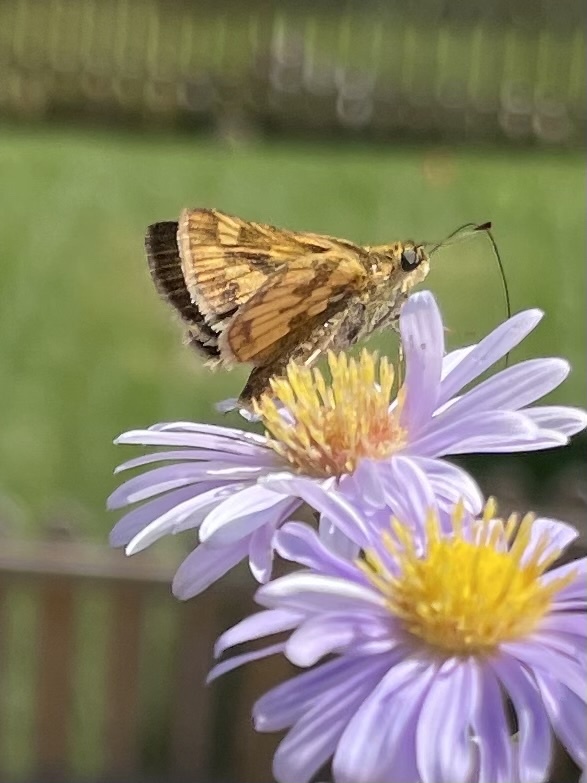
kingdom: Animalia
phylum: Arthropoda
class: Insecta
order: Lepidoptera
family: Hesperiidae
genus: Polites
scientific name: Polites coras
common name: Peck's skipper
